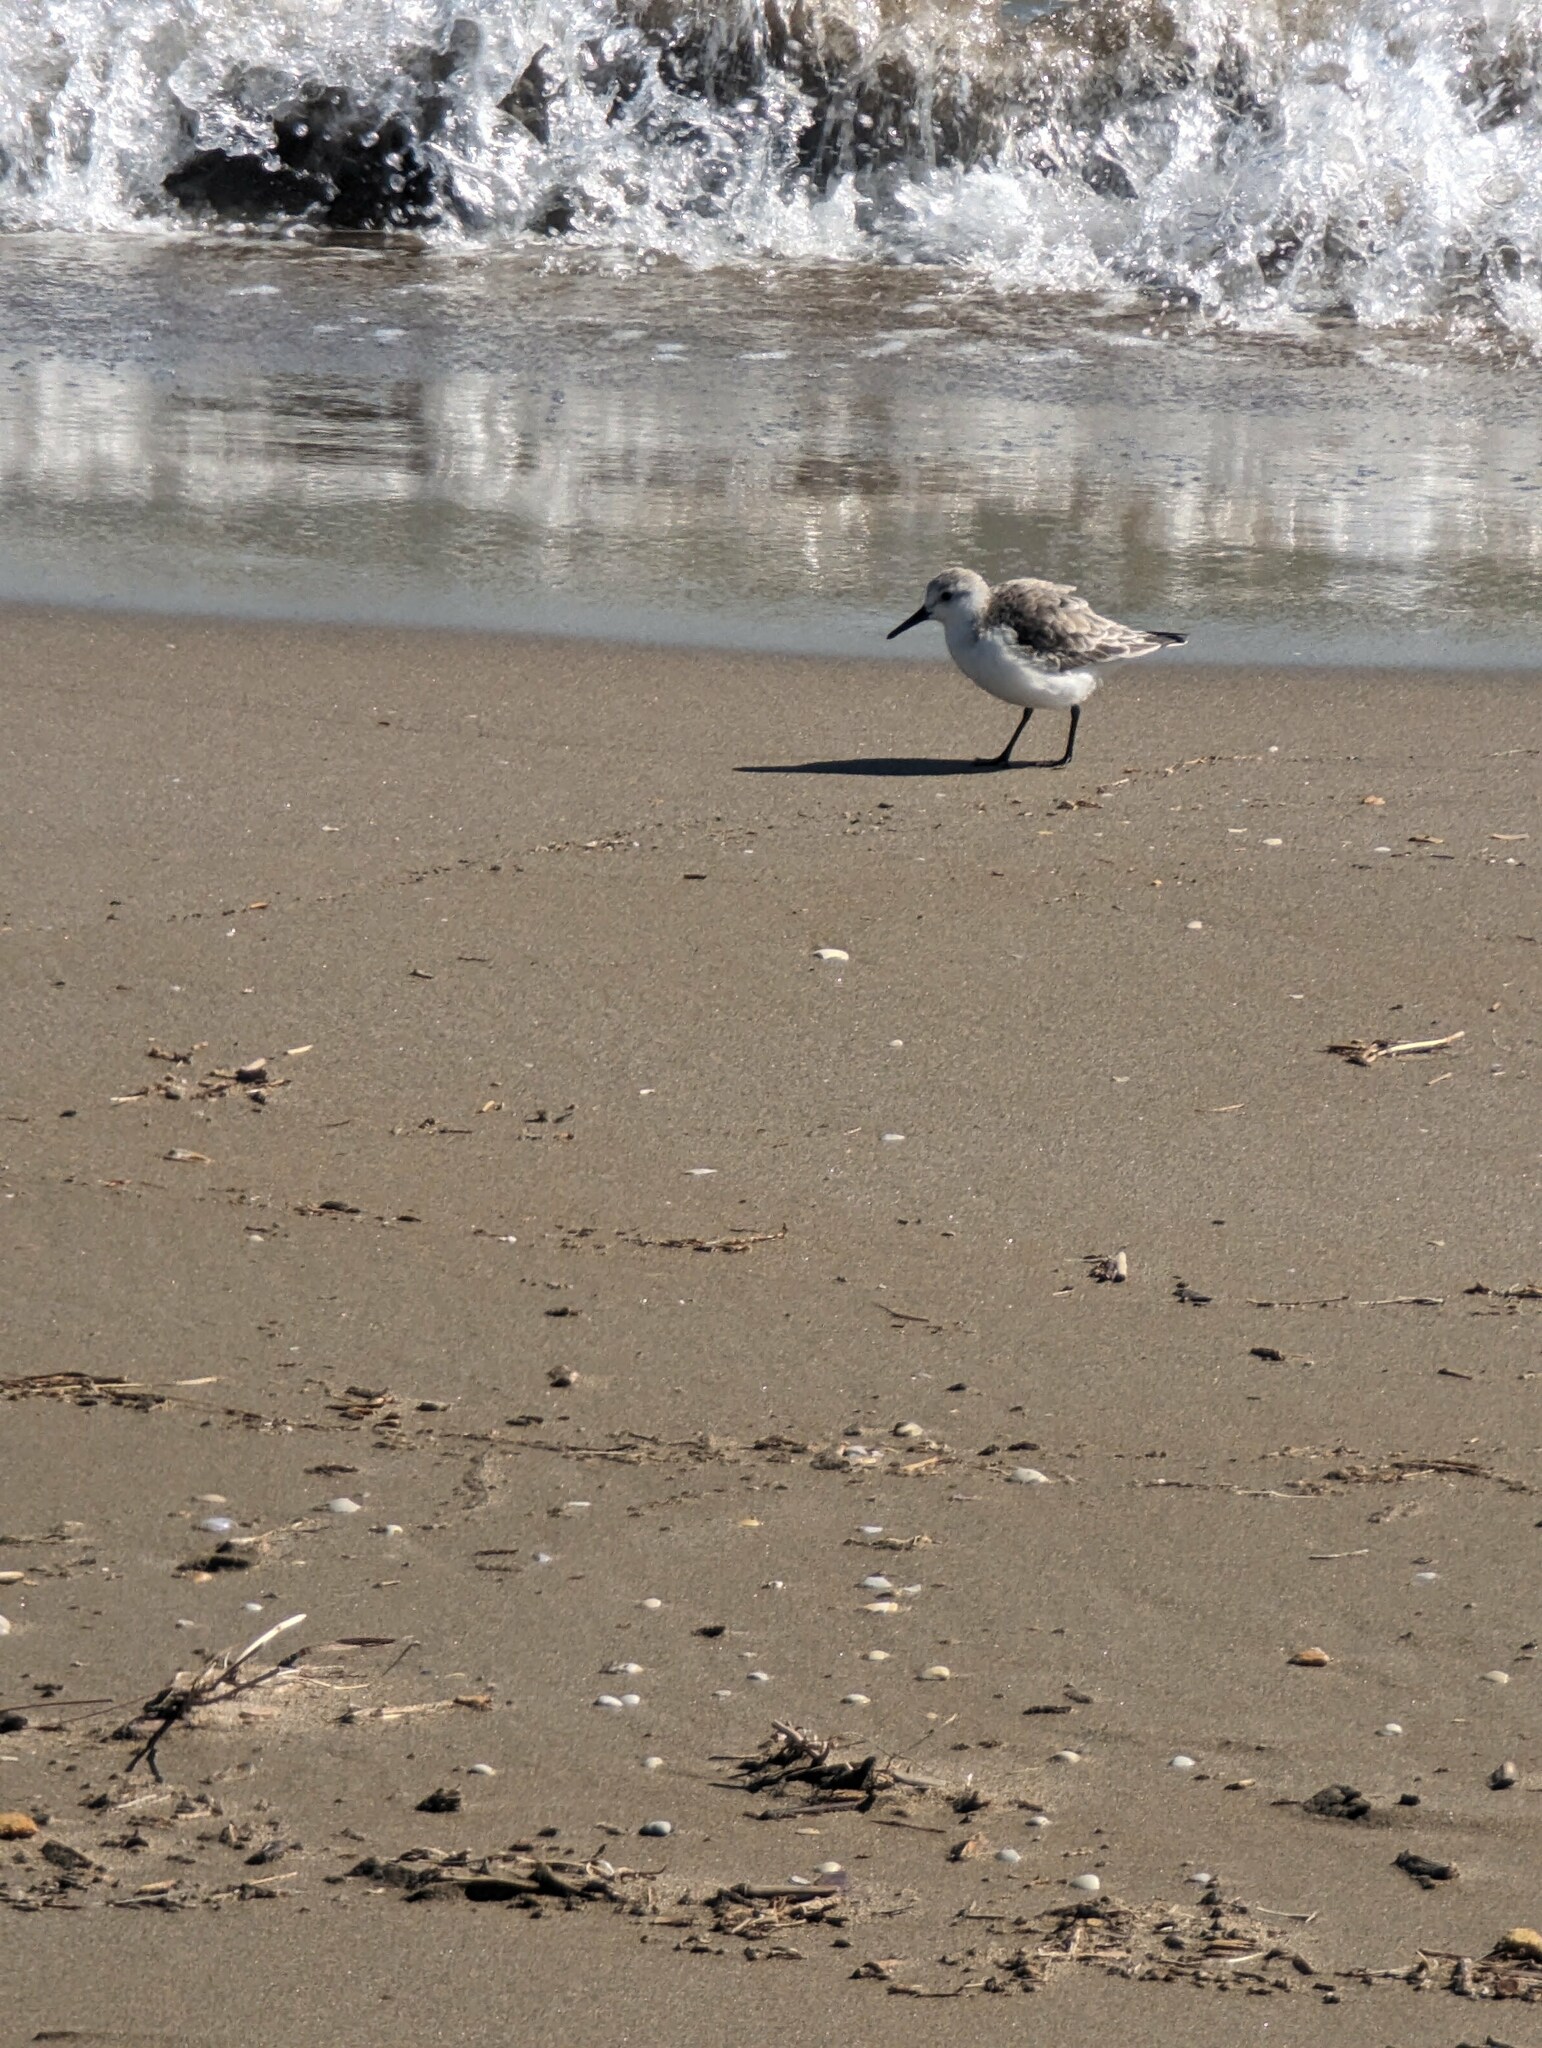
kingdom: Animalia
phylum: Chordata
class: Aves
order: Charadriiformes
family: Scolopacidae
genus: Calidris
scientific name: Calidris alba
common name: Sanderling
